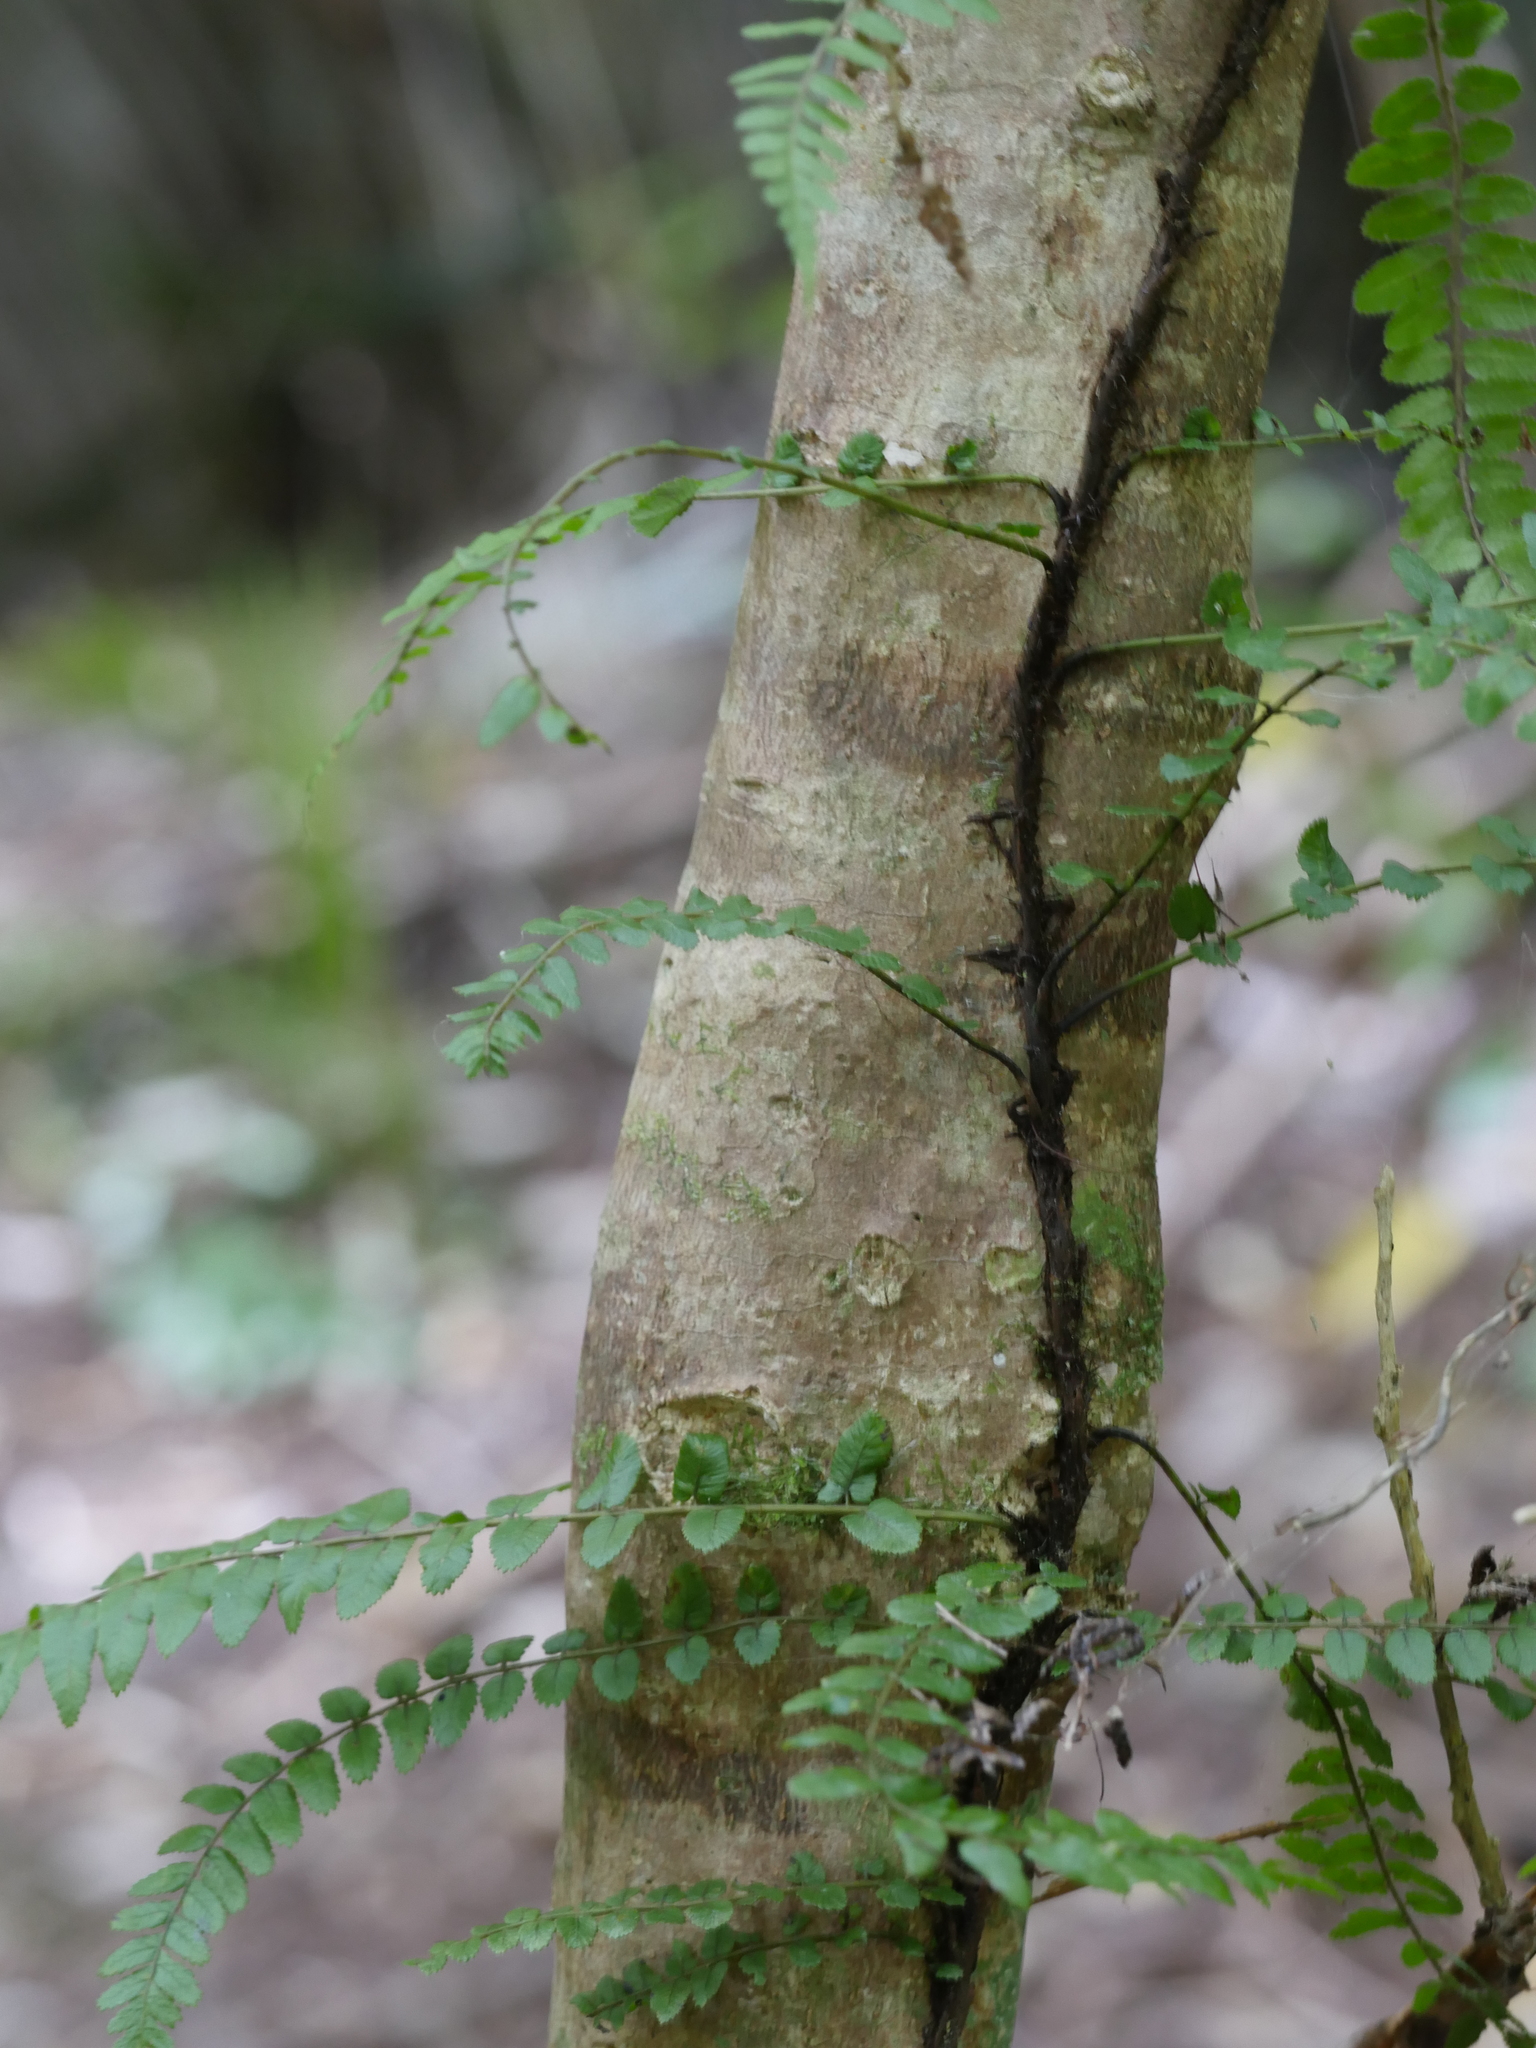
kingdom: Plantae
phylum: Tracheophyta
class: Polypodiopsida
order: Polypodiales
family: Blechnaceae
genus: Icarus
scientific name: Icarus filiformis
